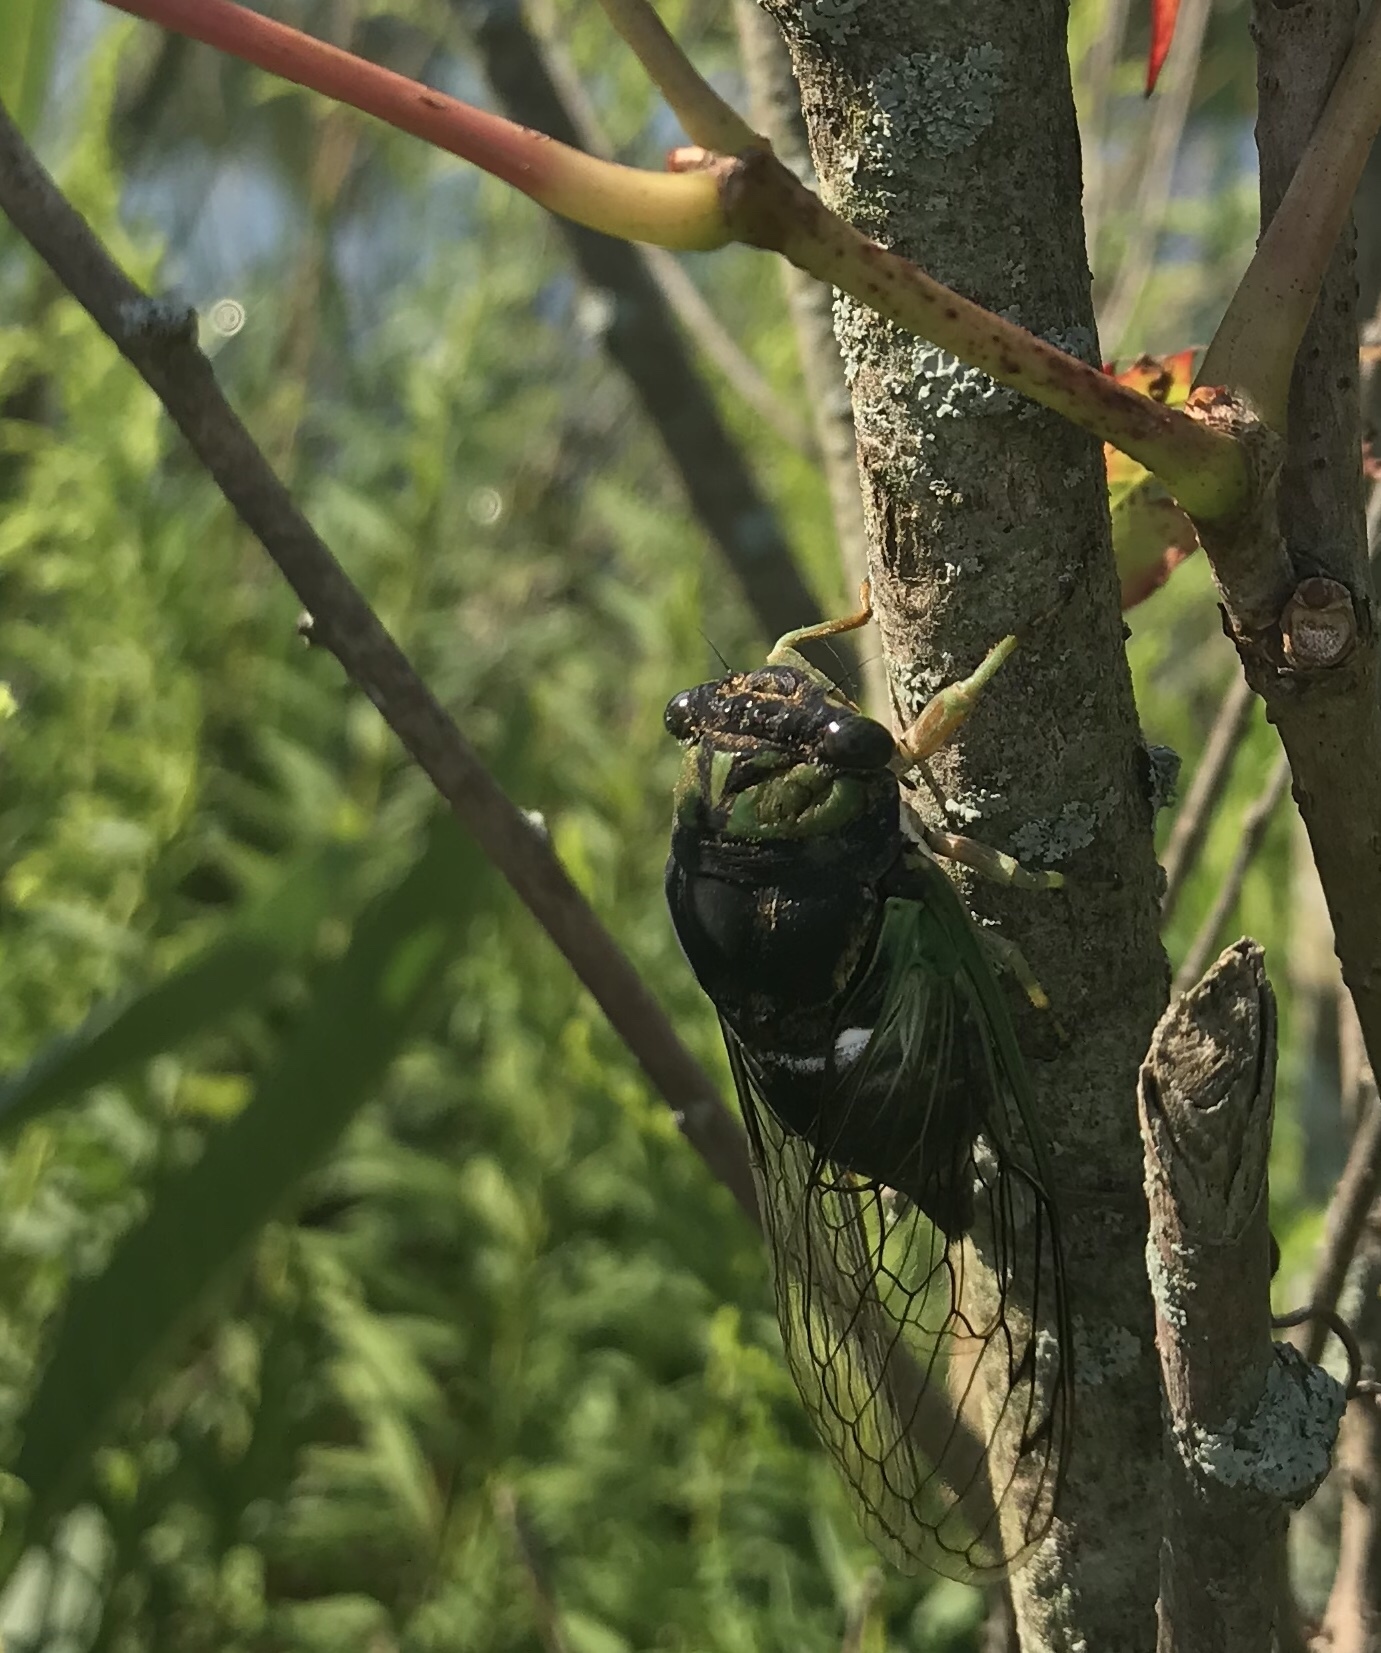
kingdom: Animalia
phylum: Arthropoda
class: Insecta
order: Hemiptera
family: Cicadidae
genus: Neotibicen
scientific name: Neotibicen tibicen
